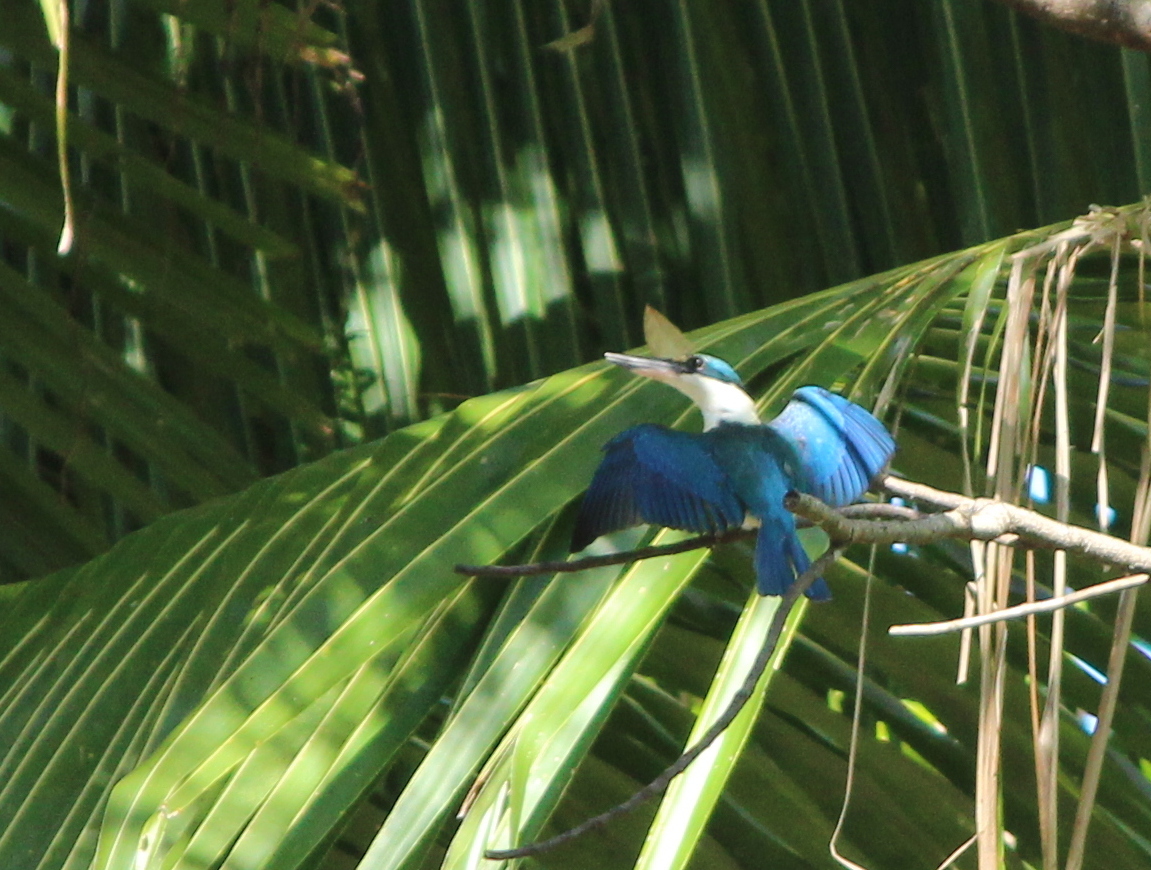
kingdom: Animalia
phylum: Chordata
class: Aves
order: Coraciiformes
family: Alcedinidae
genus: Todiramphus
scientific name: Todiramphus chloris
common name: Collared kingfisher
